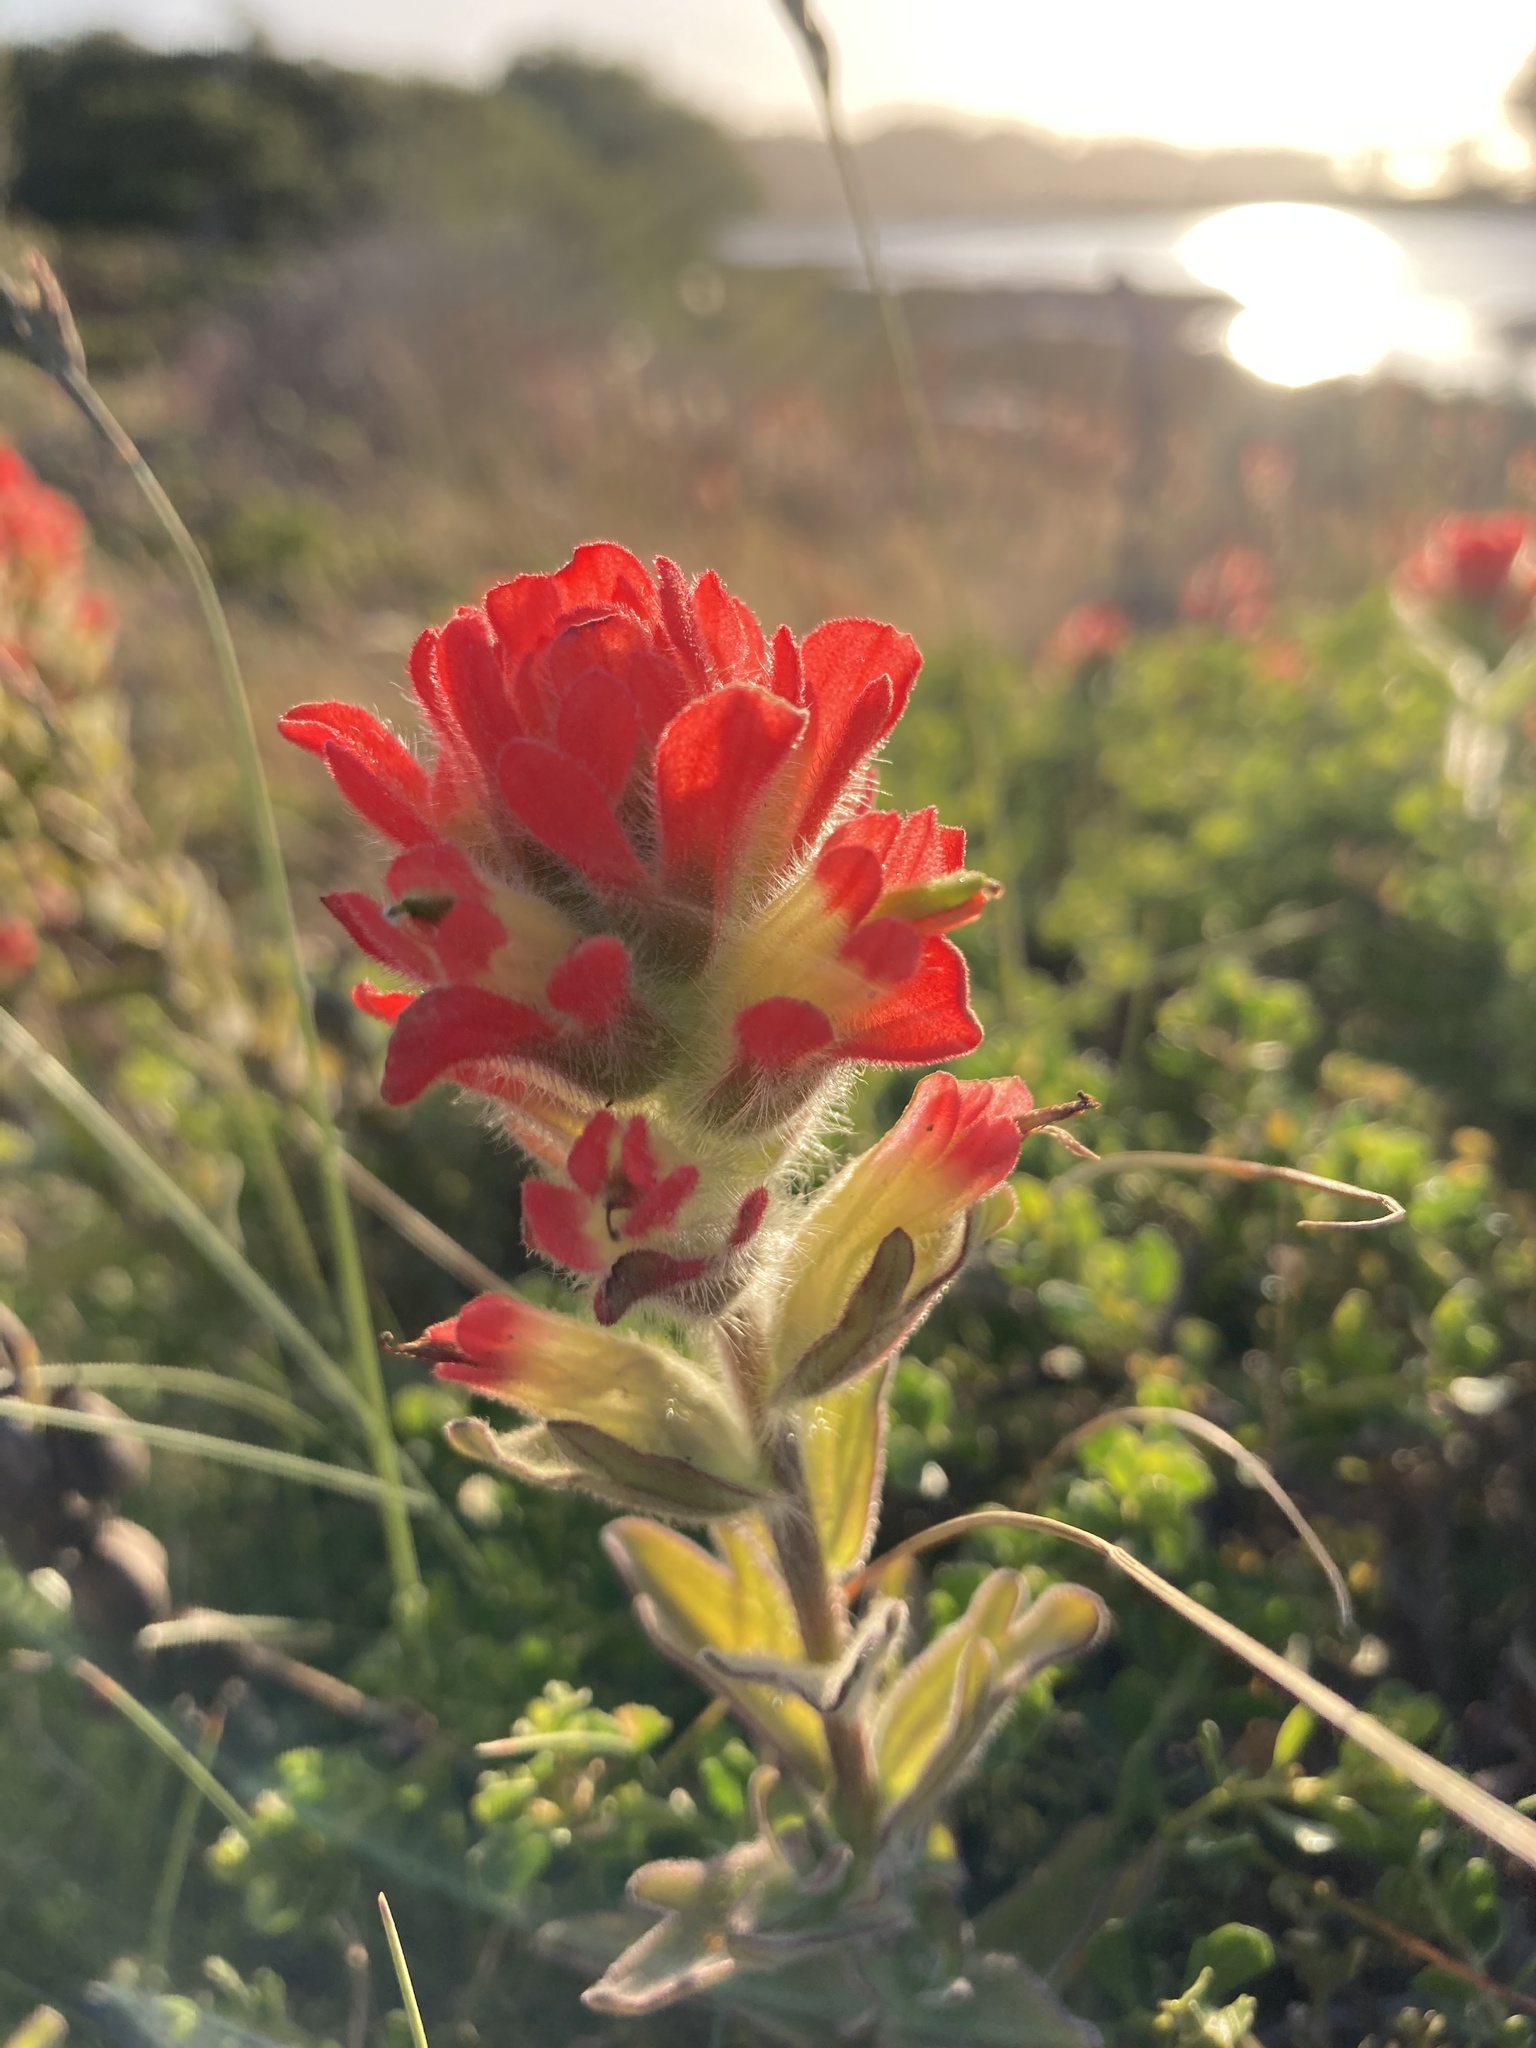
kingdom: Plantae
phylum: Tracheophyta
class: Magnoliopsida
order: Lamiales
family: Orobanchaceae
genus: Castilleja
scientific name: Castilleja affinis
